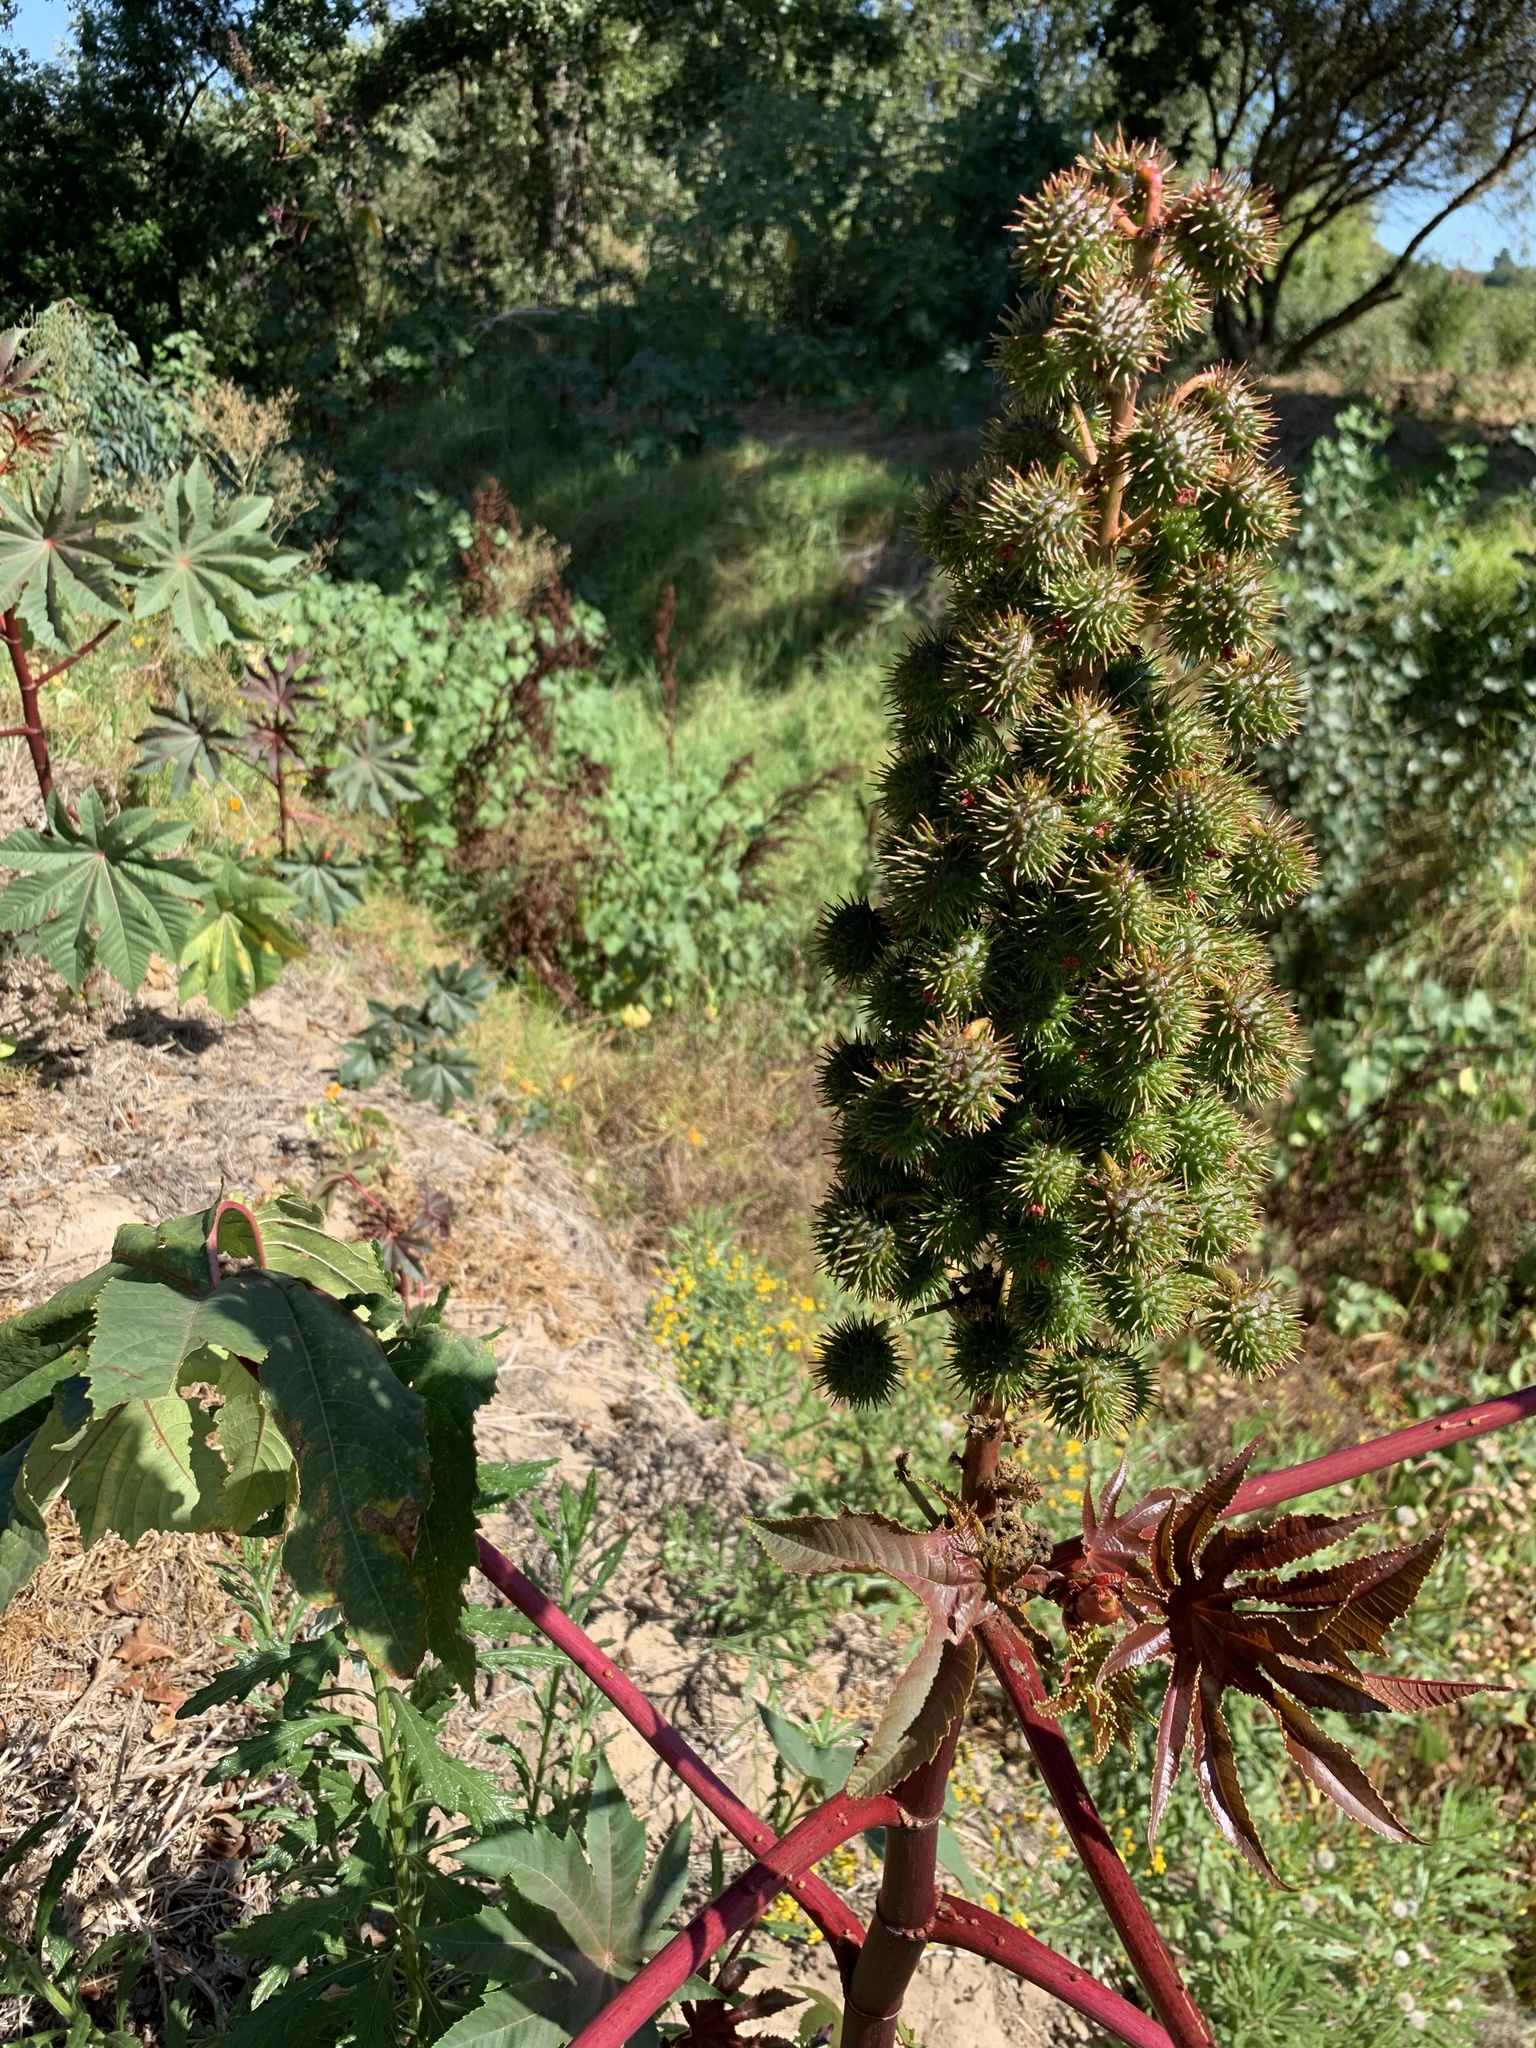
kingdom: Plantae
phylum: Tracheophyta
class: Magnoliopsida
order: Malpighiales
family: Euphorbiaceae
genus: Ricinus
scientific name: Ricinus communis
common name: Castor-oil-plant
